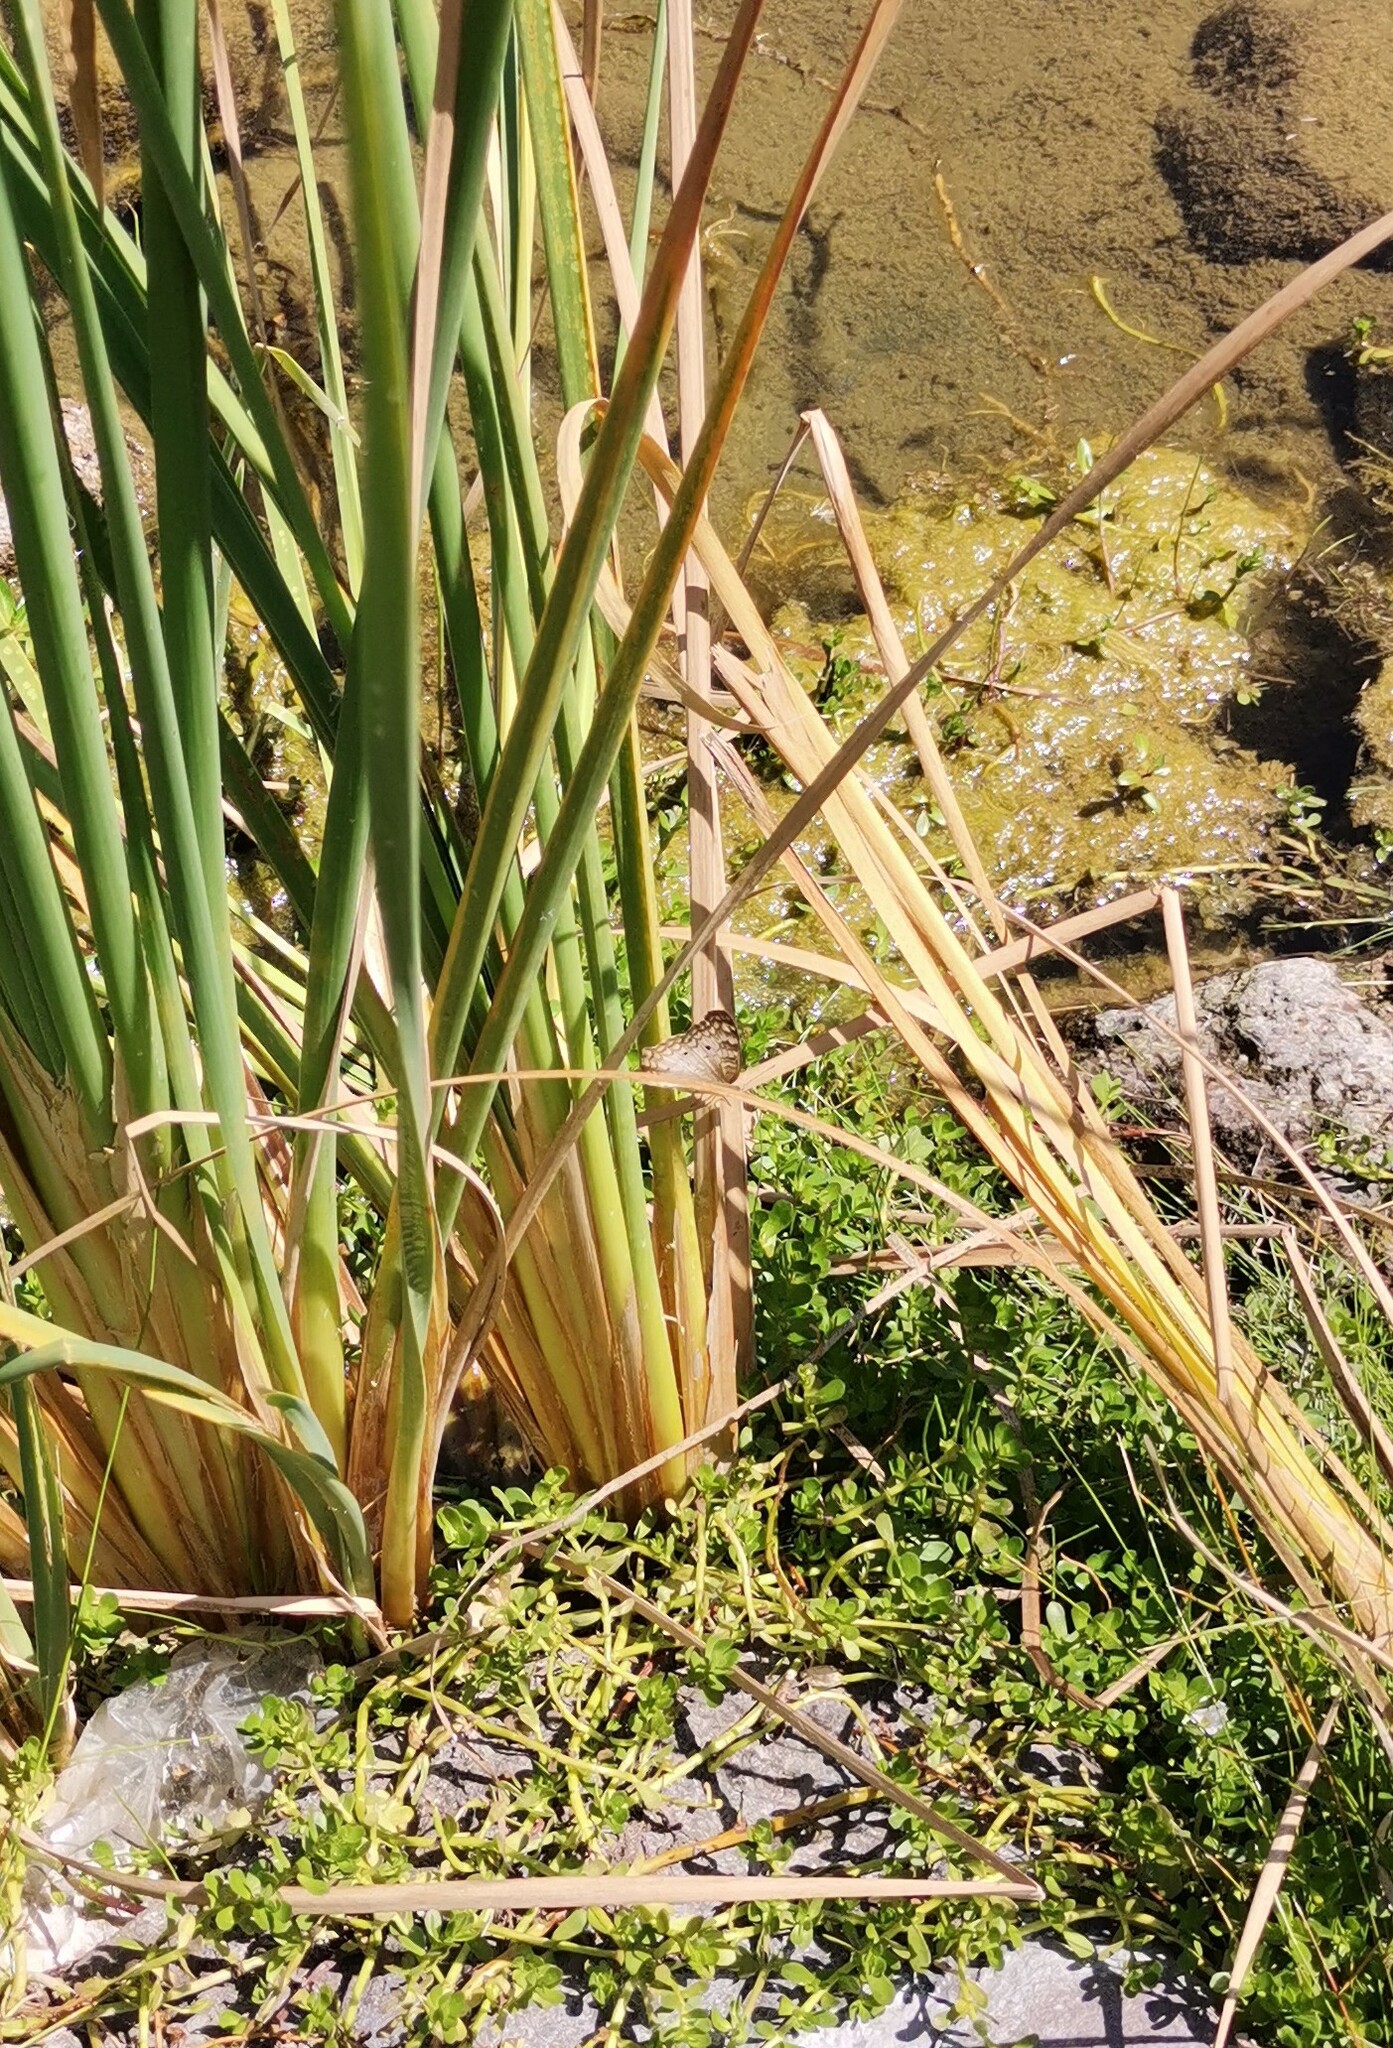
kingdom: Animalia
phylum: Arthropoda
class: Insecta
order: Lepidoptera
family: Nymphalidae
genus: Anartia
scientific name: Anartia jatrophae
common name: White peacock
